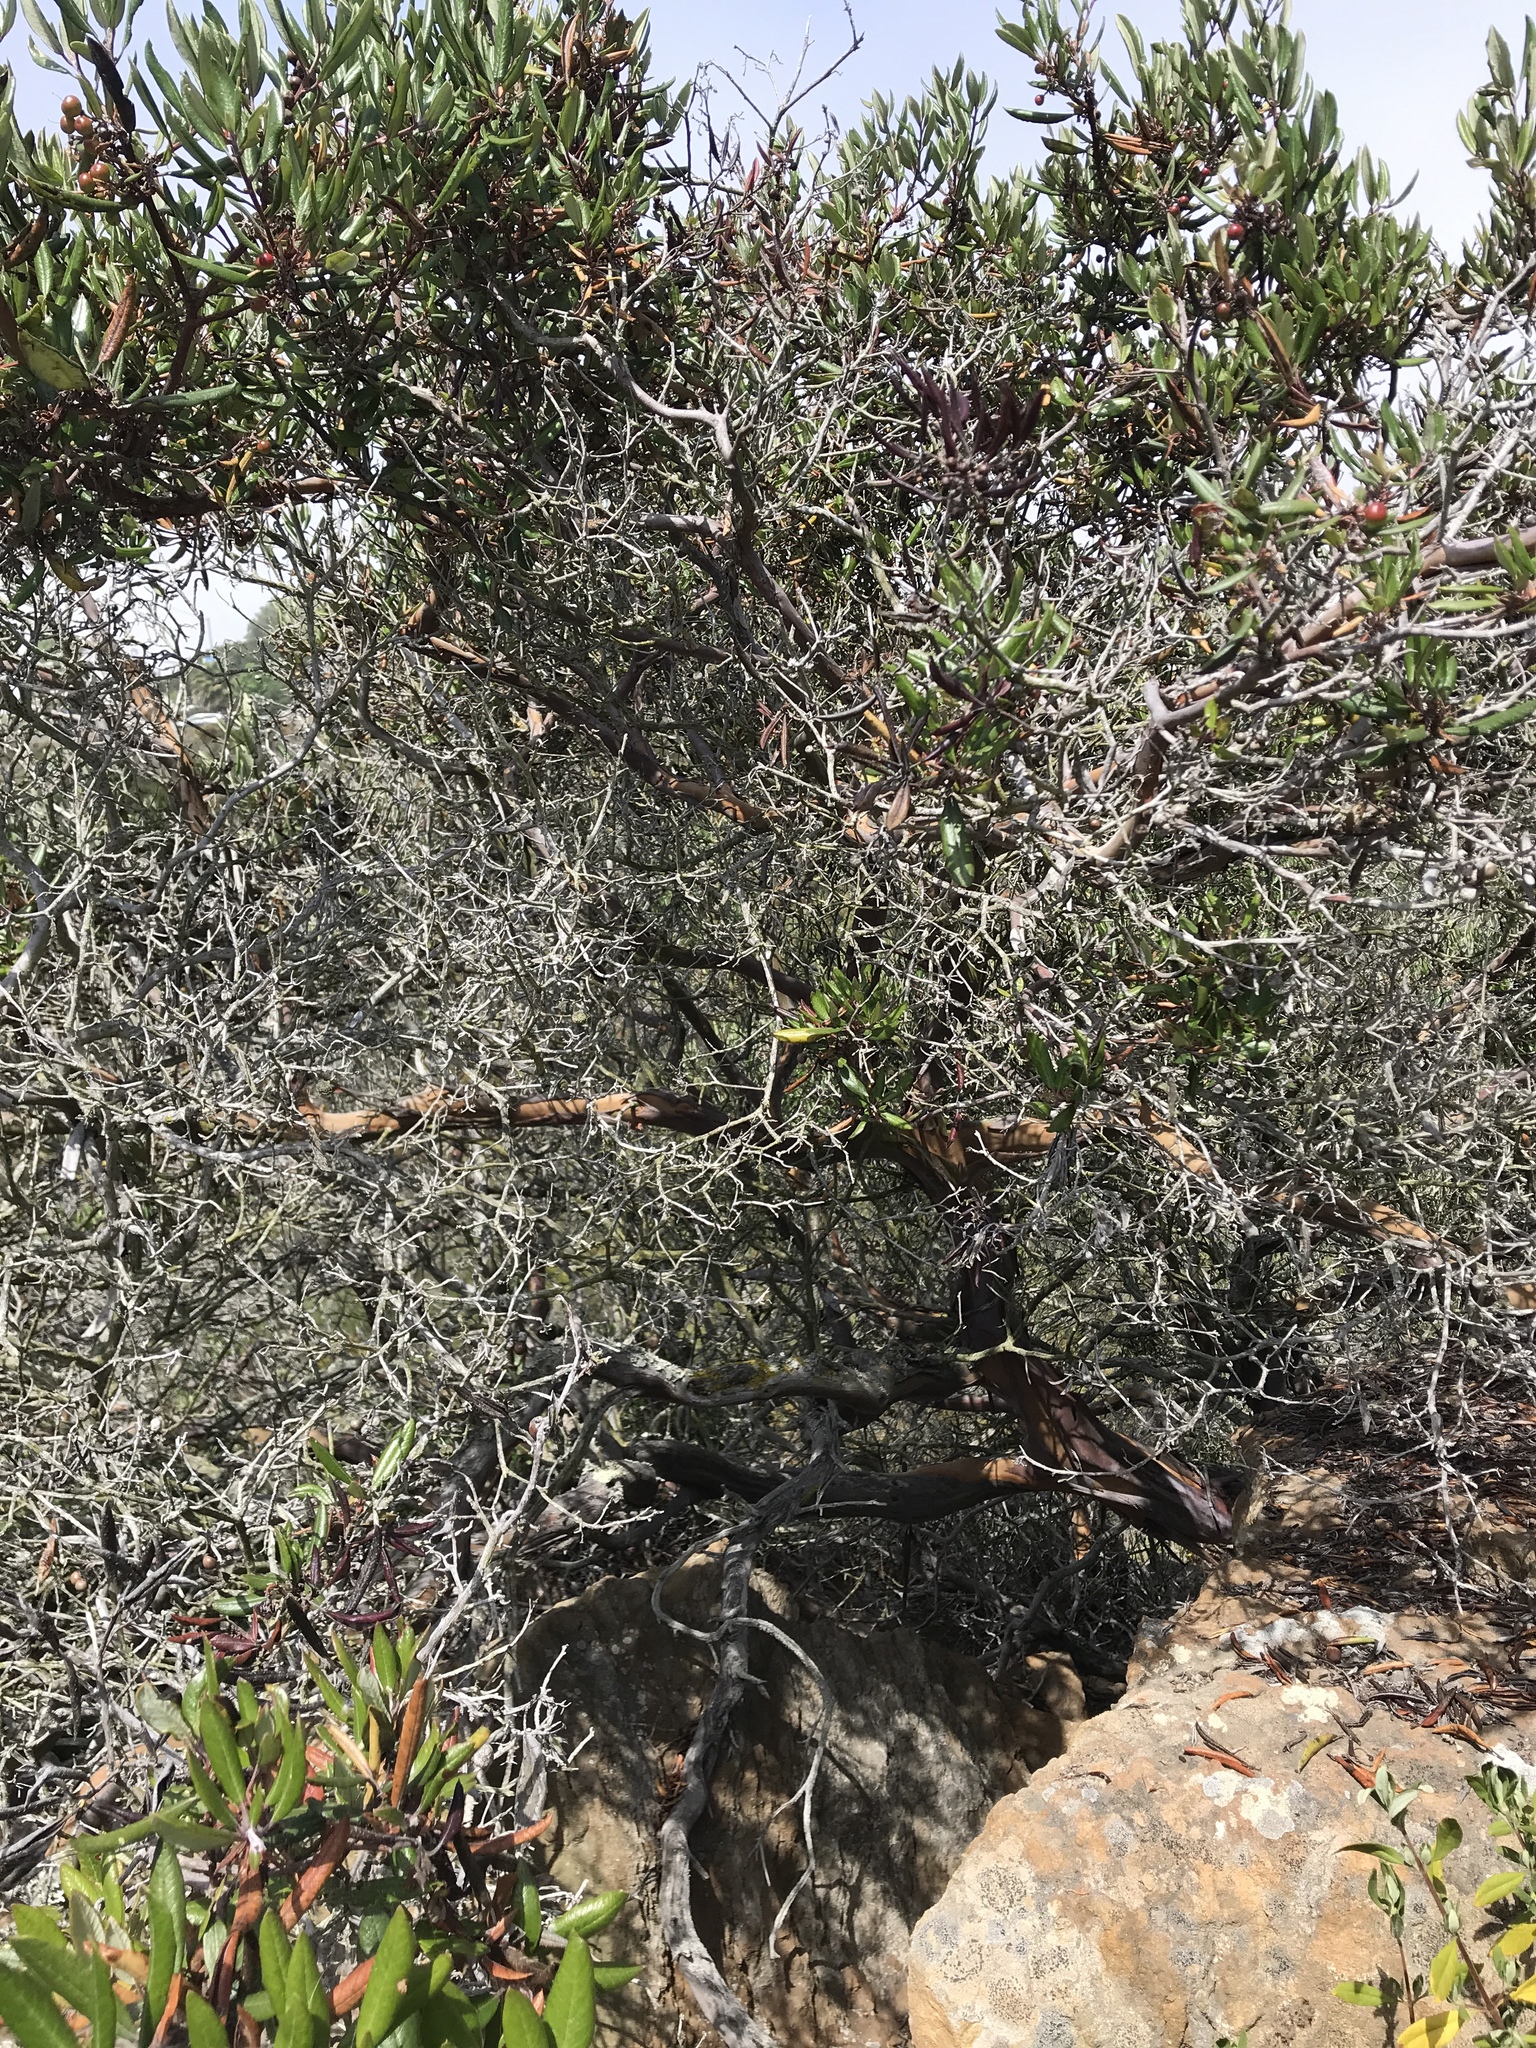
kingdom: Plantae
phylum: Tracheophyta
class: Magnoliopsida
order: Ericales
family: Ericaceae
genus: Arctostaphylos
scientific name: Arctostaphylos bicolor
